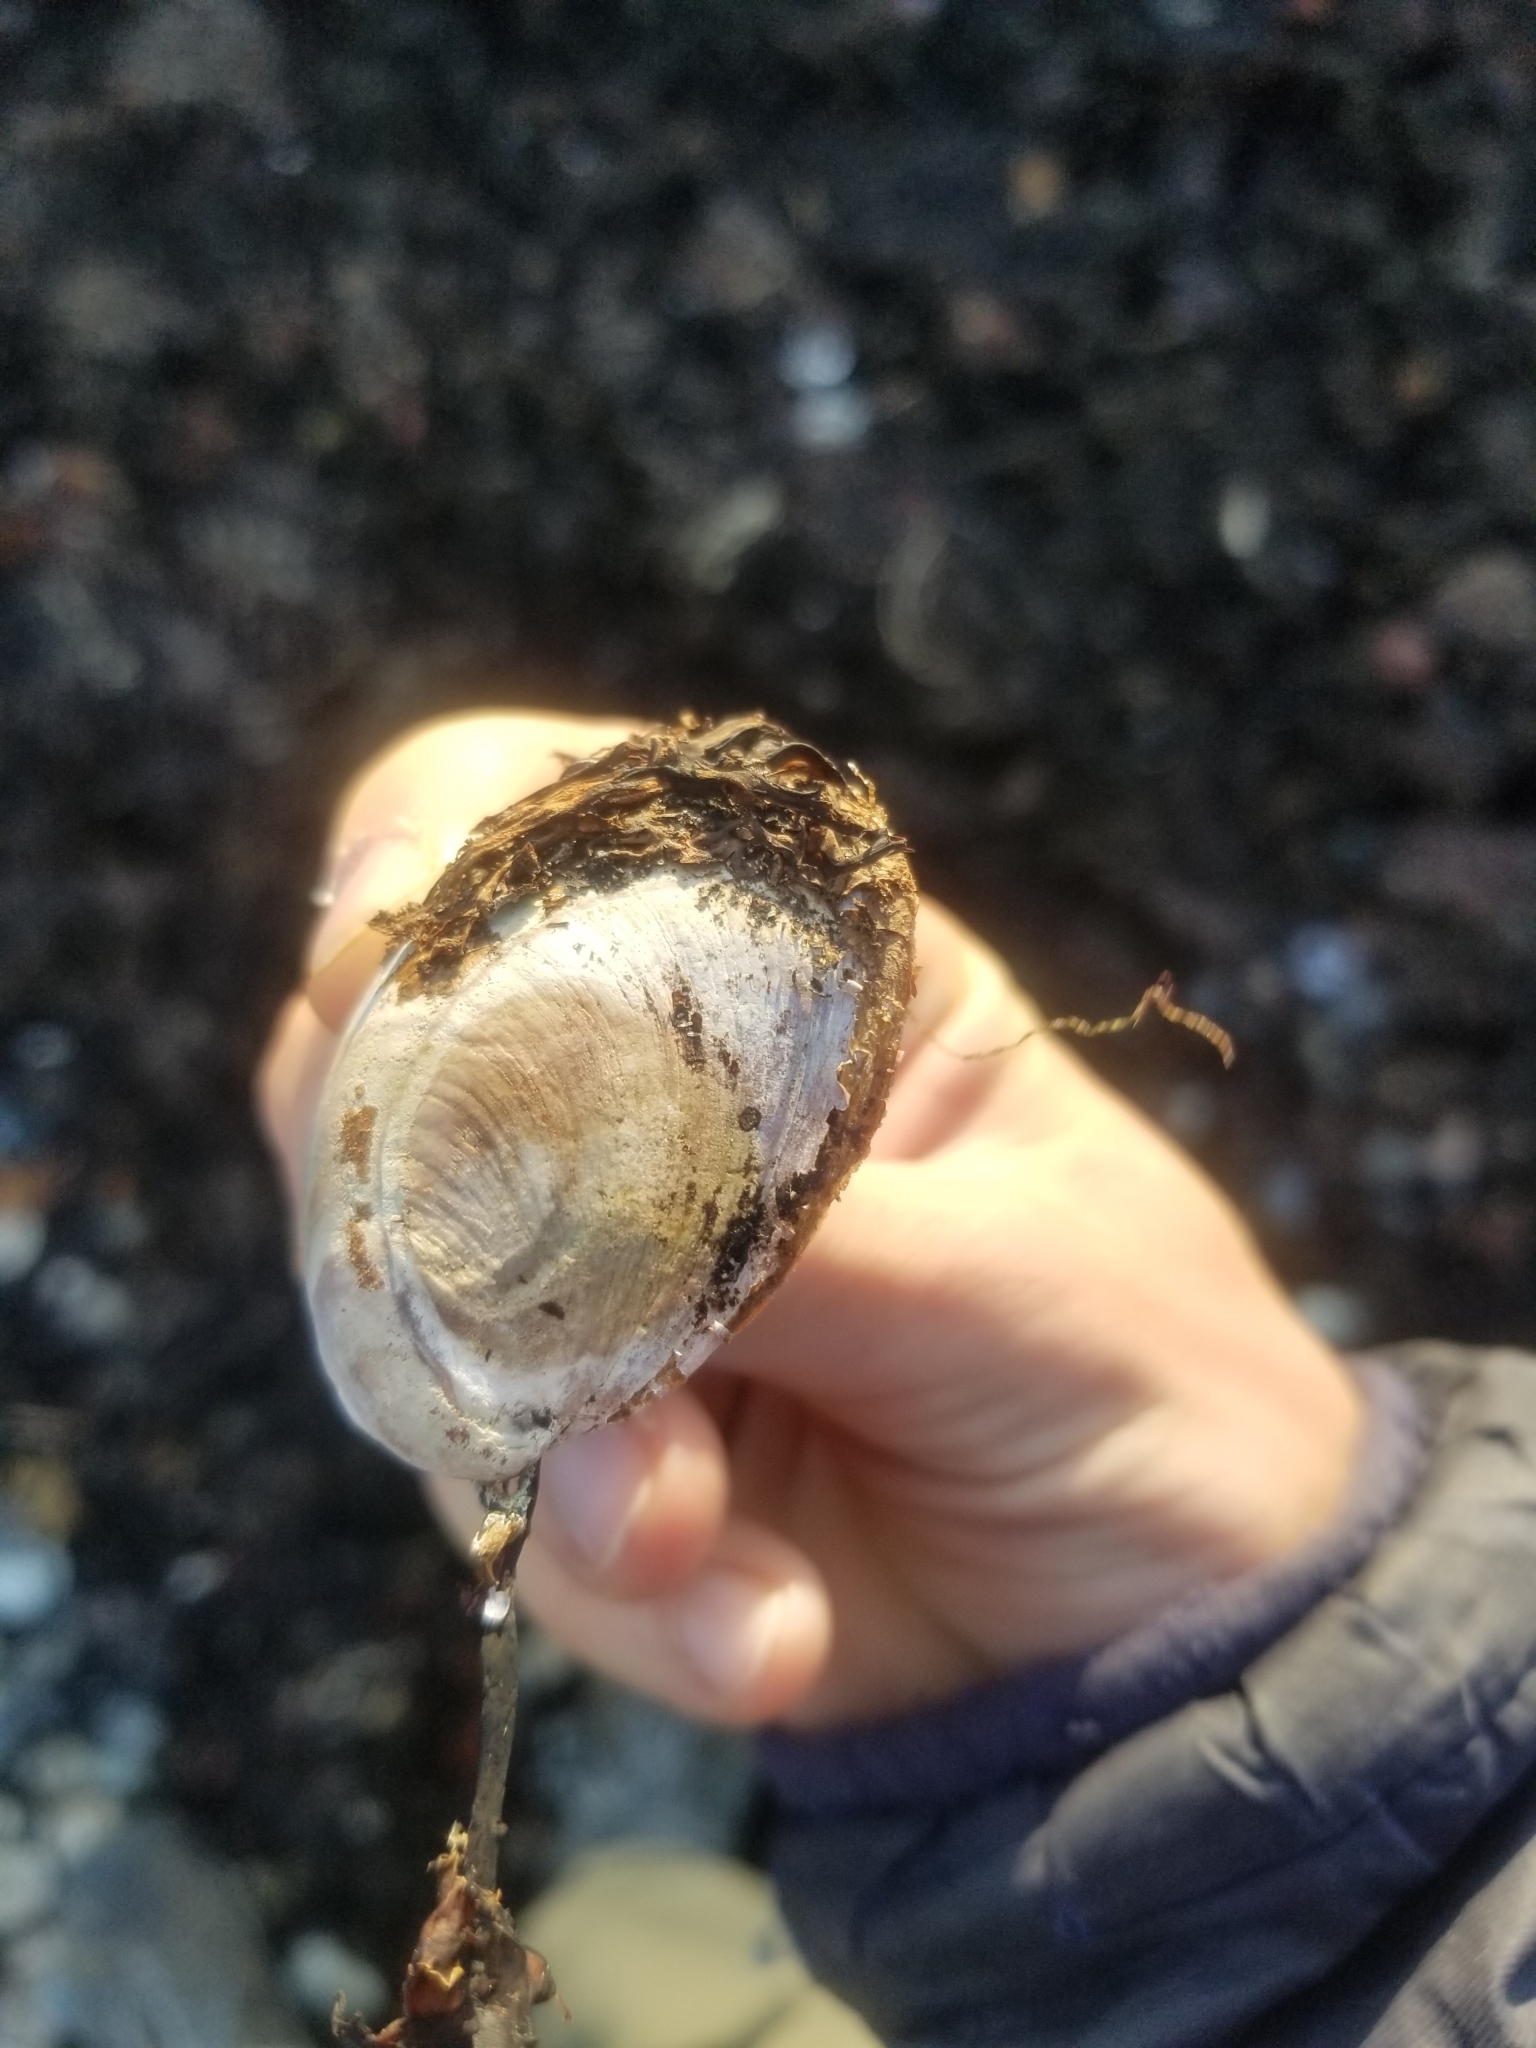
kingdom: Animalia
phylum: Mollusca
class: Gastropoda
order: Littorinimorpha
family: Calyptraeidae
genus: Crepidula
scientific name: Crepidula fornicata
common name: Slipper limpet
